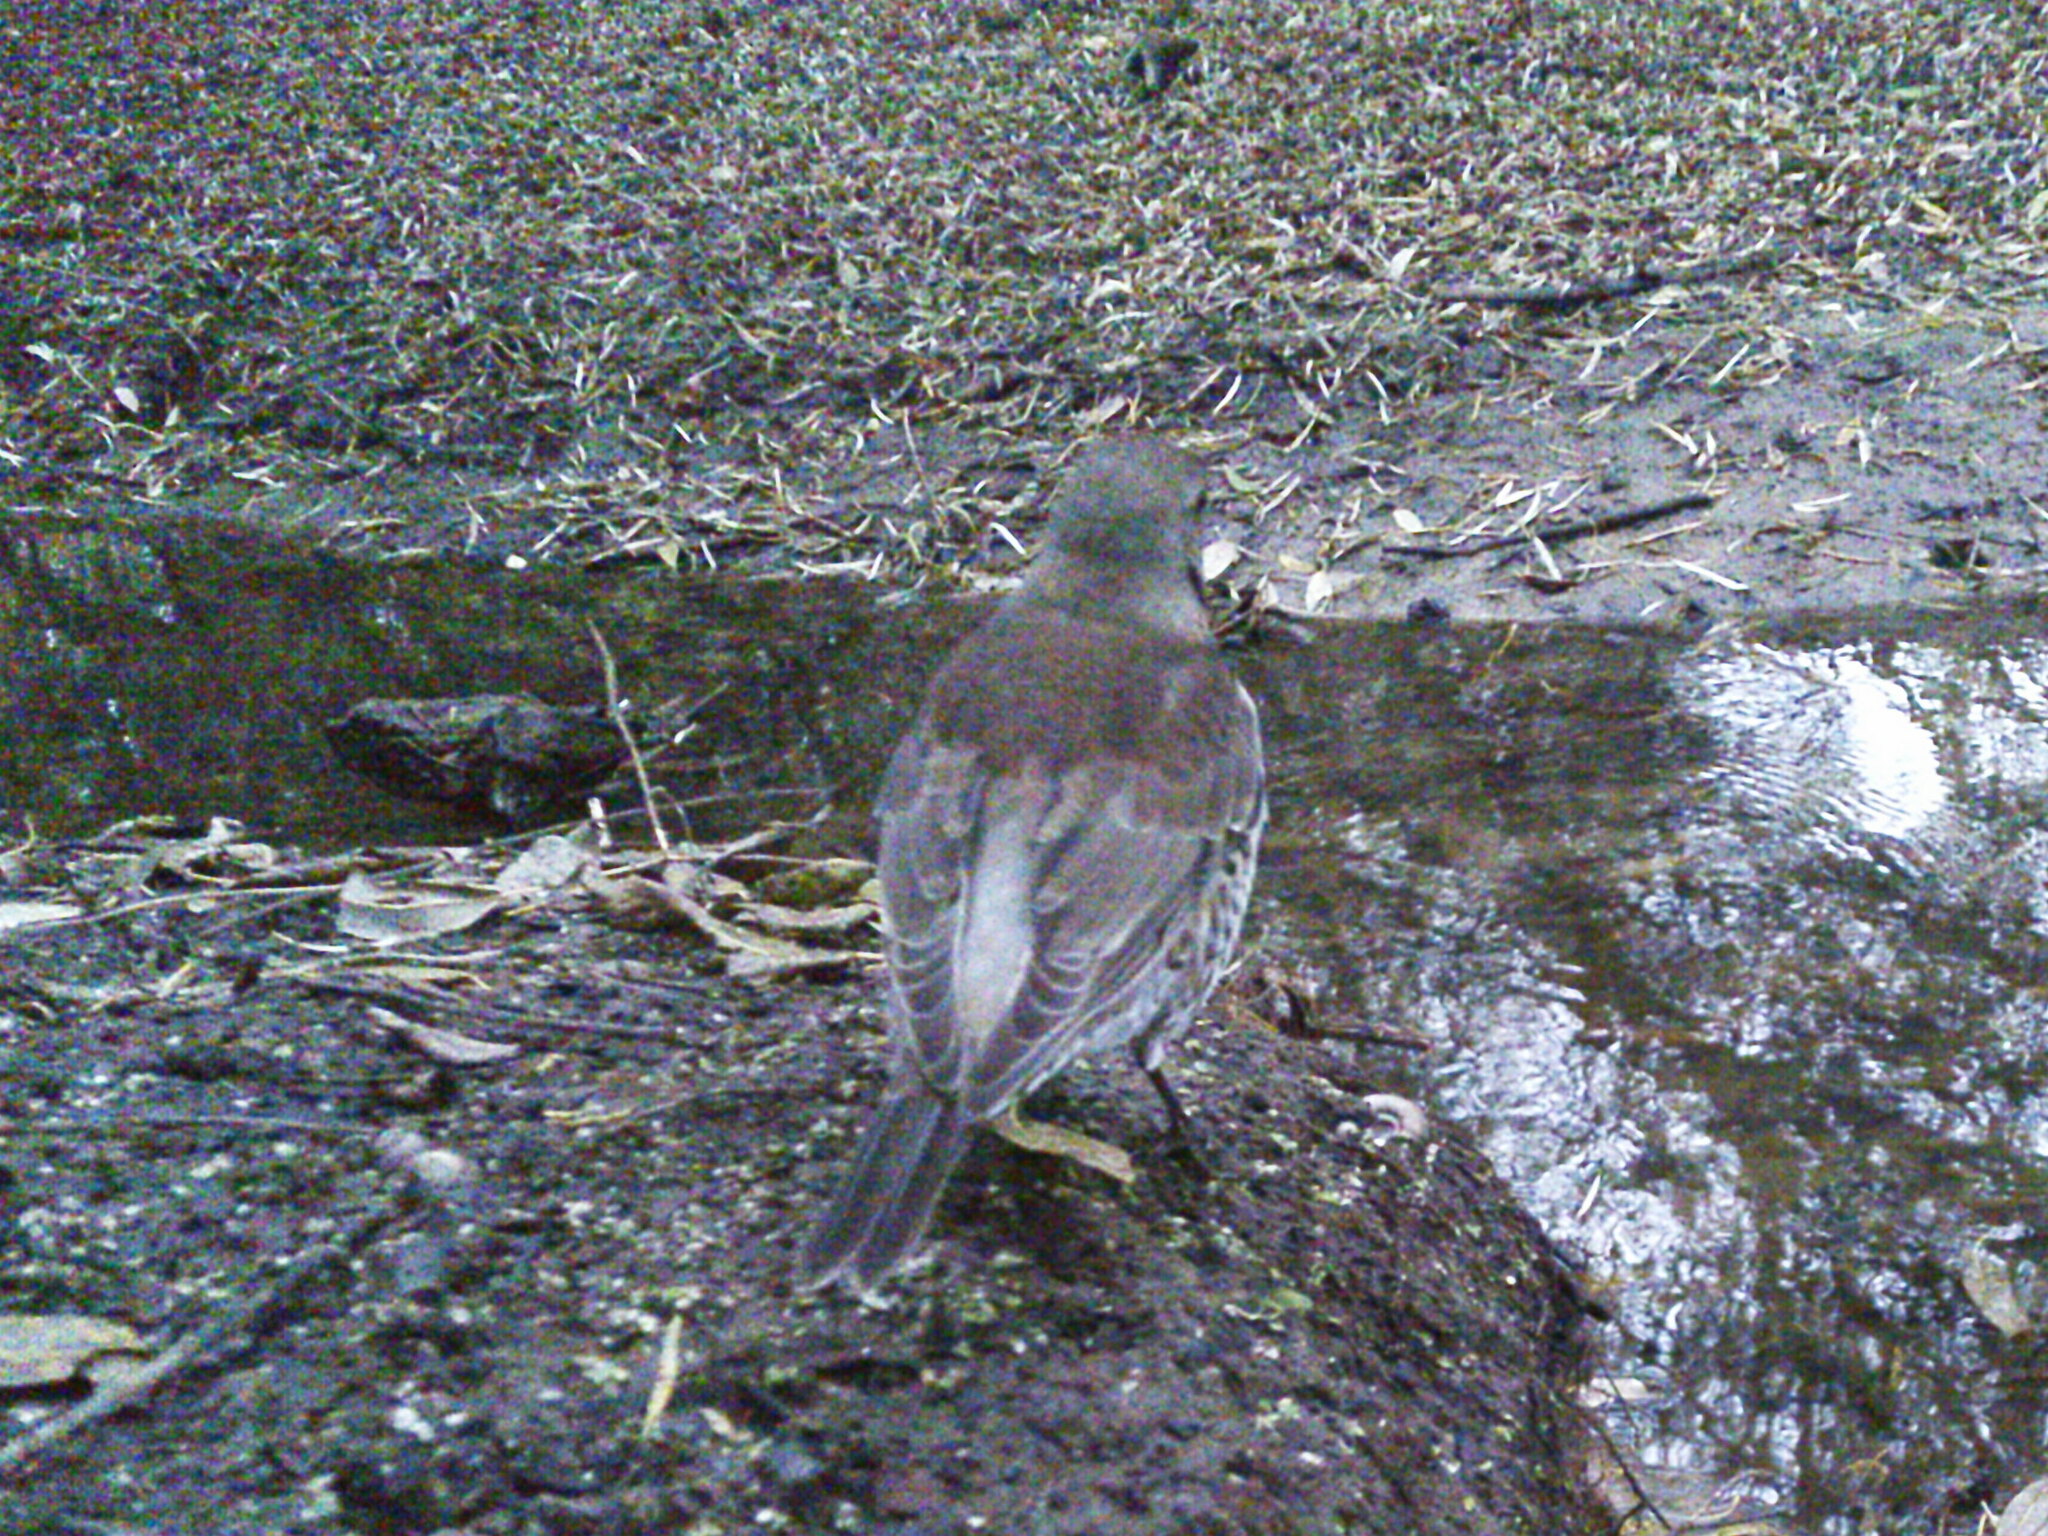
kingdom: Animalia
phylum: Chordata
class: Aves
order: Passeriformes
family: Turdidae
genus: Turdus
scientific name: Turdus pilaris
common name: Fieldfare
